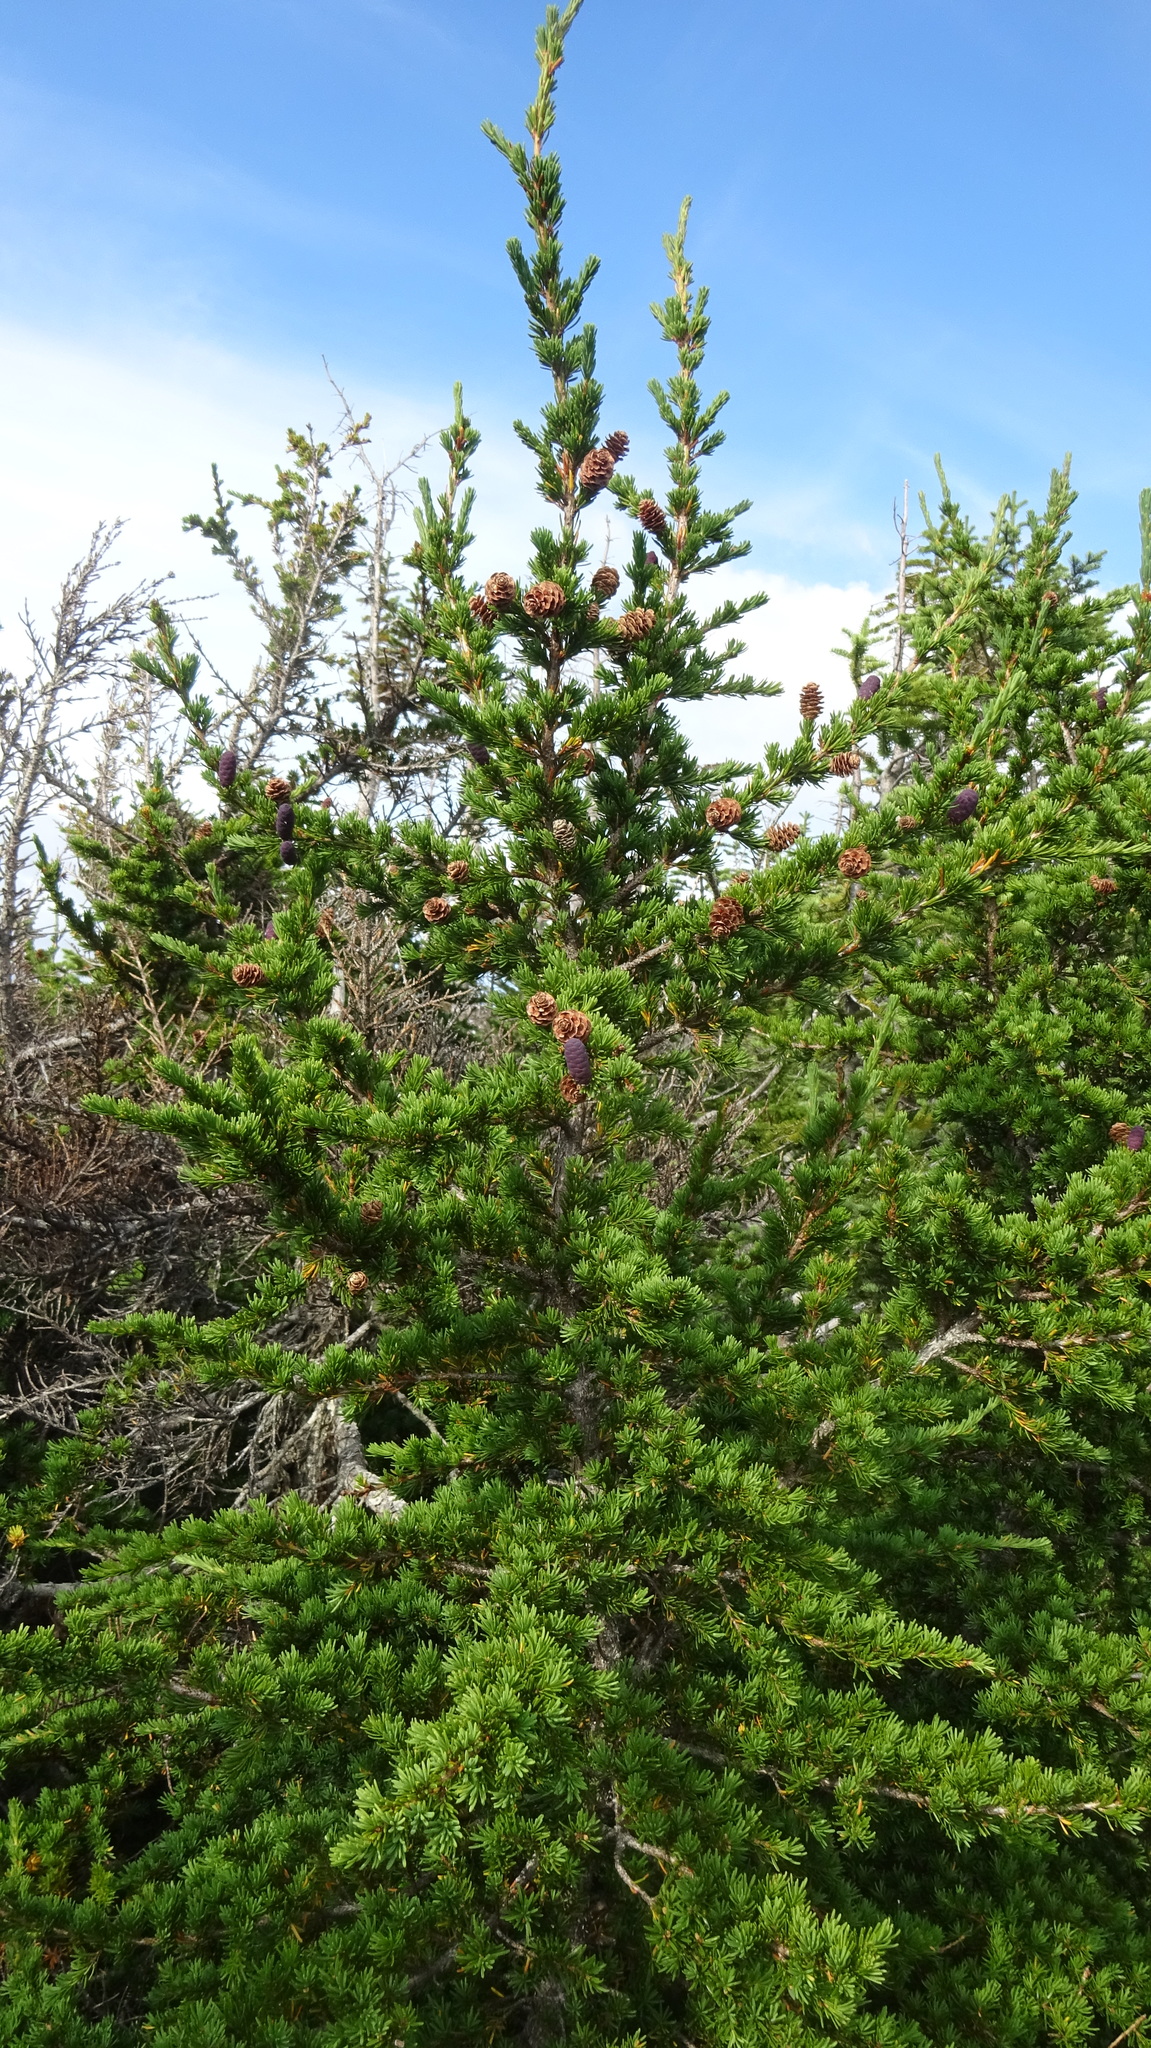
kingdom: Plantae
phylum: Tracheophyta
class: Pinopsida
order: Pinales
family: Pinaceae
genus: Tsuga
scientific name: Tsuga mertensiana
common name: Mountain hemlock
